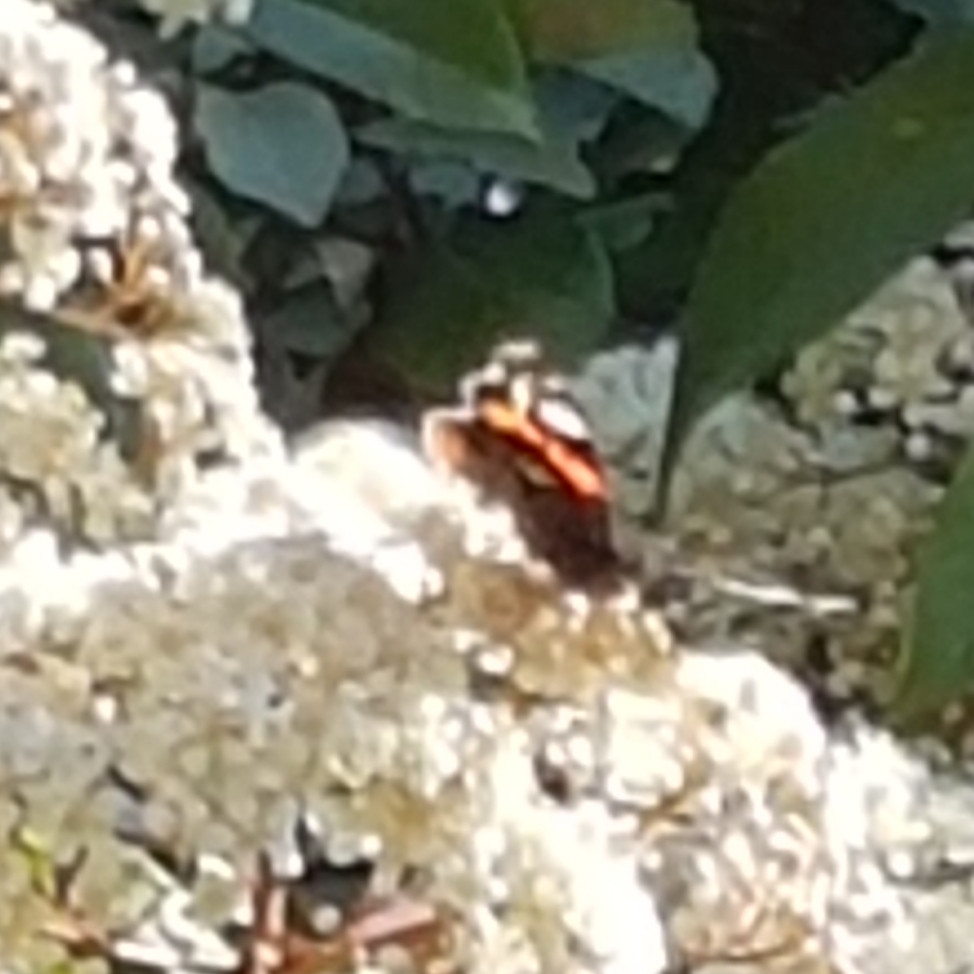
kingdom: Animalia
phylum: Arthropoda
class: Insecta
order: Lepidoptera
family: Nymphalidae
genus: Vanessa
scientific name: Vanessa atalanta
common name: Red admiral
